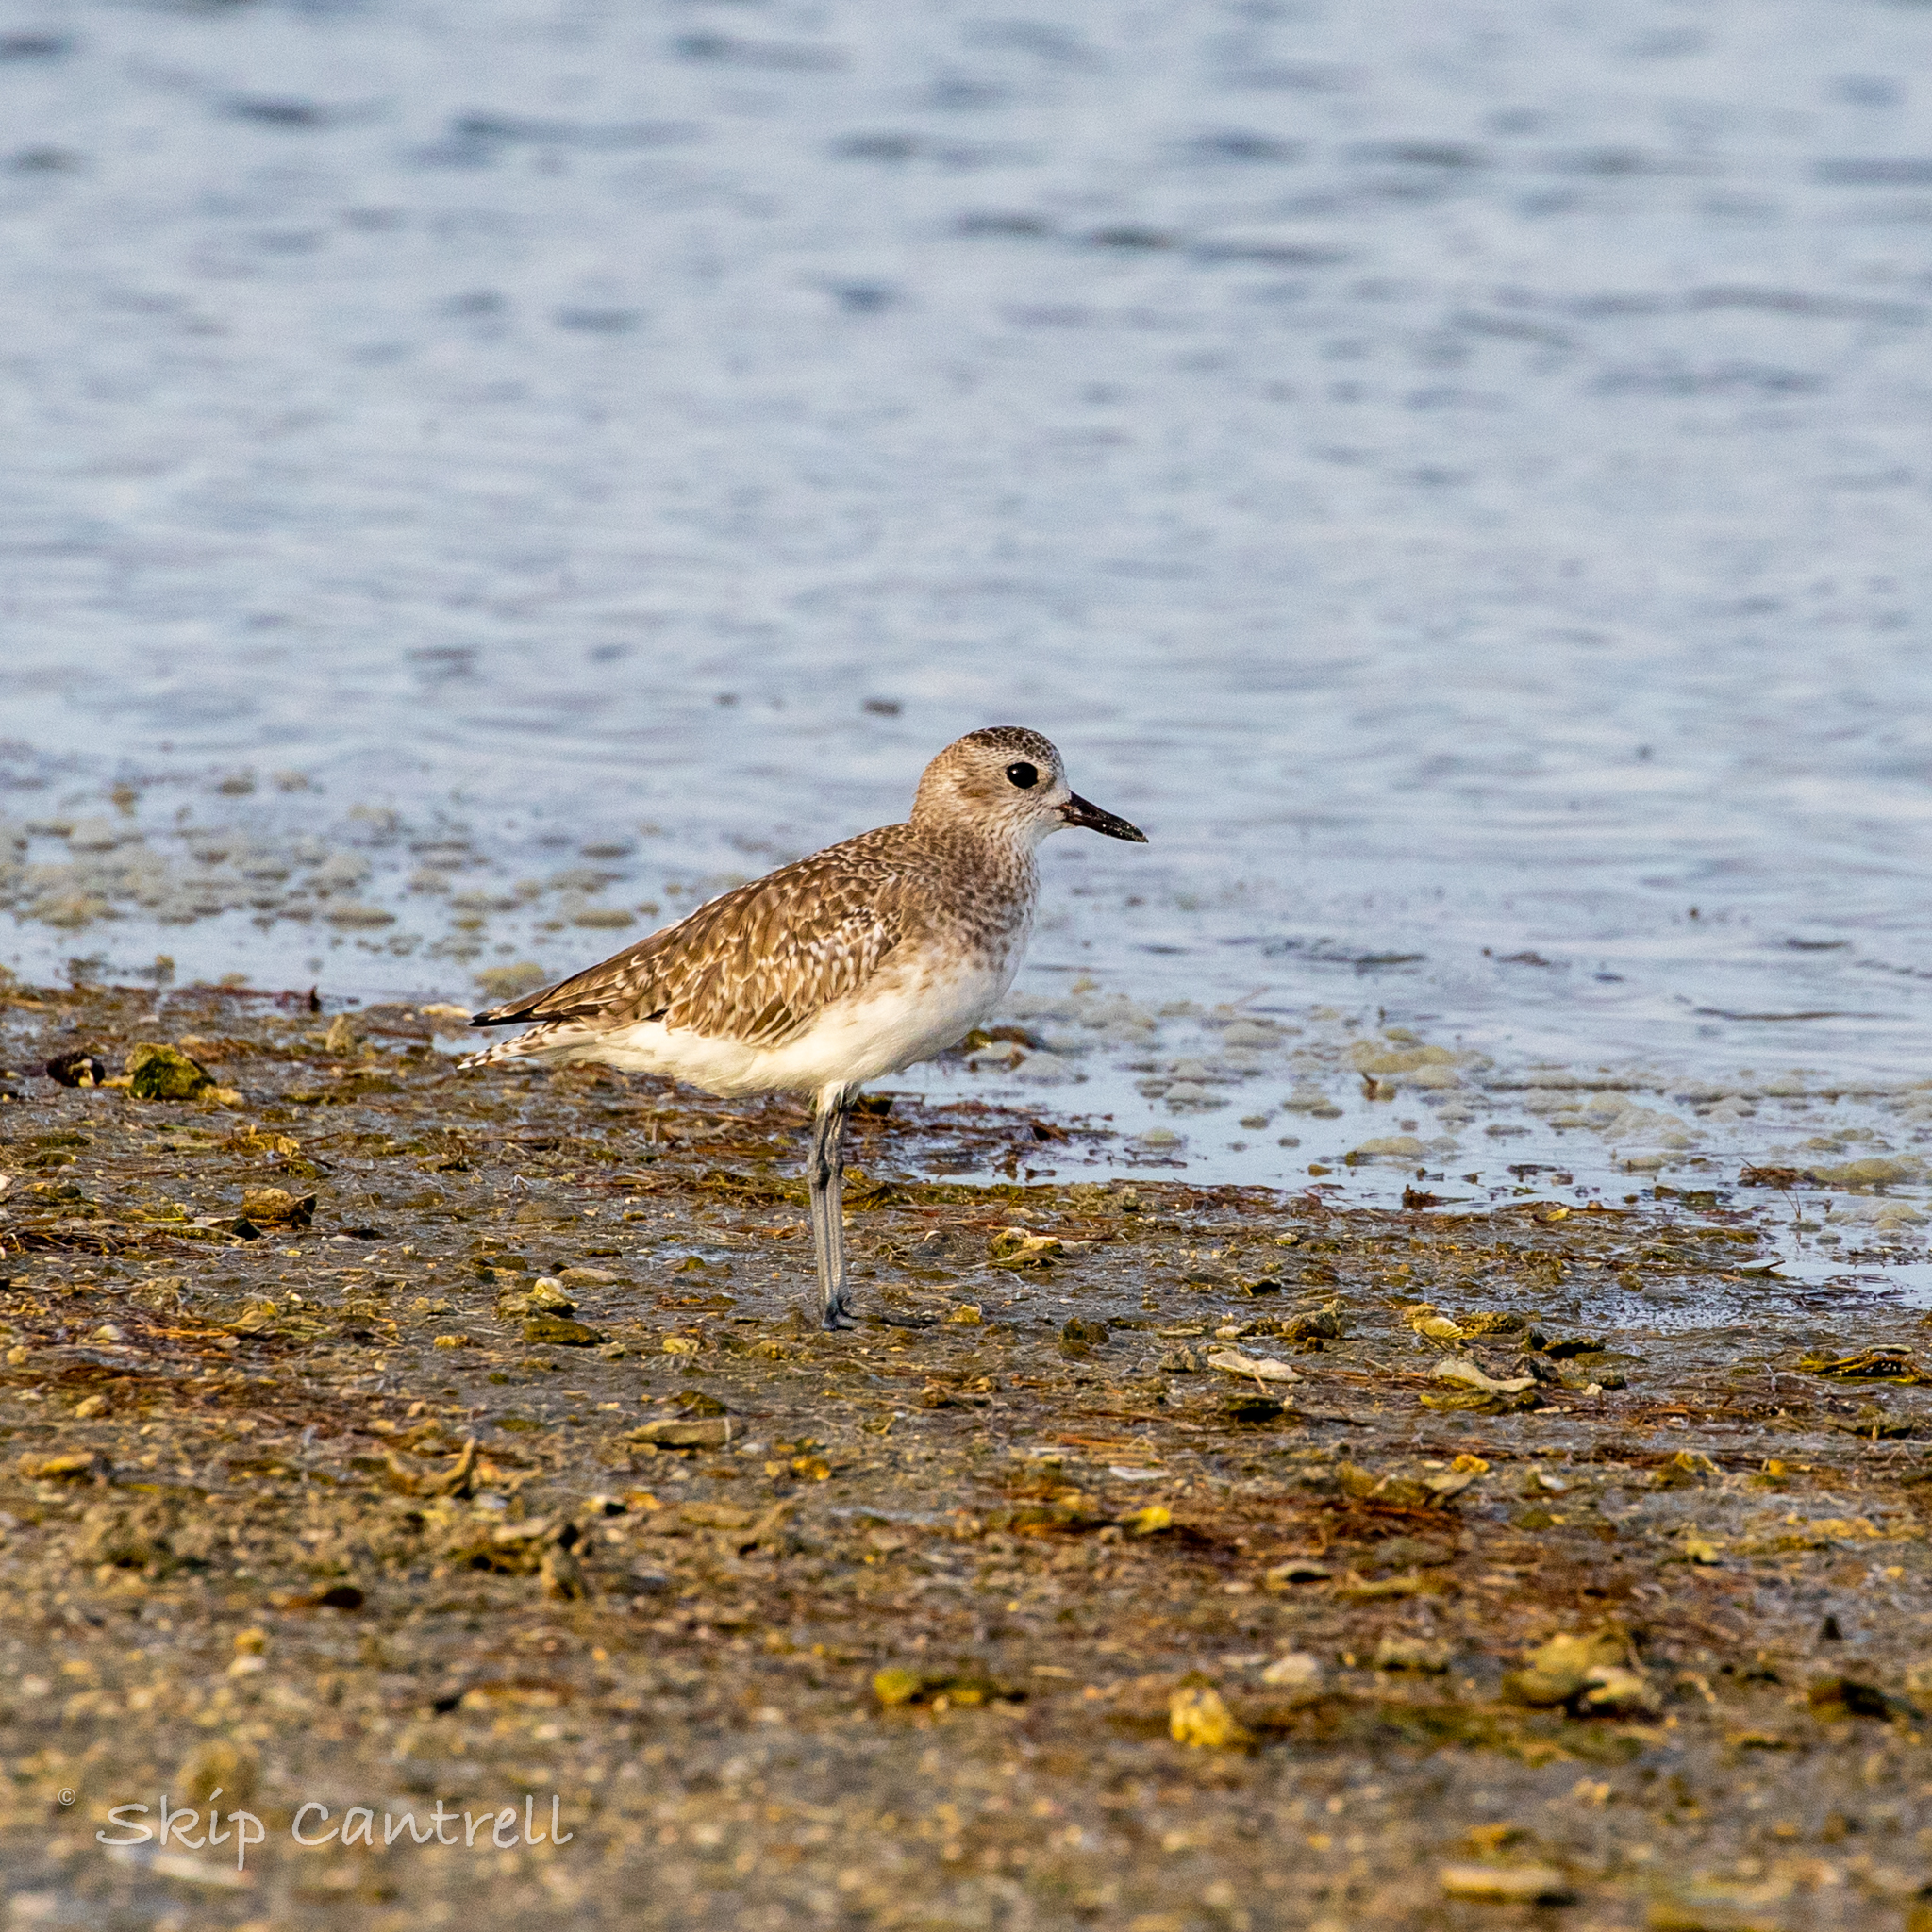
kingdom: Animalia
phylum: Chordata
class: Aves
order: Charadriiformes
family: Charadriidae
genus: Pluvialis
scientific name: Pluvialis squatarola
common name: Grey plover
